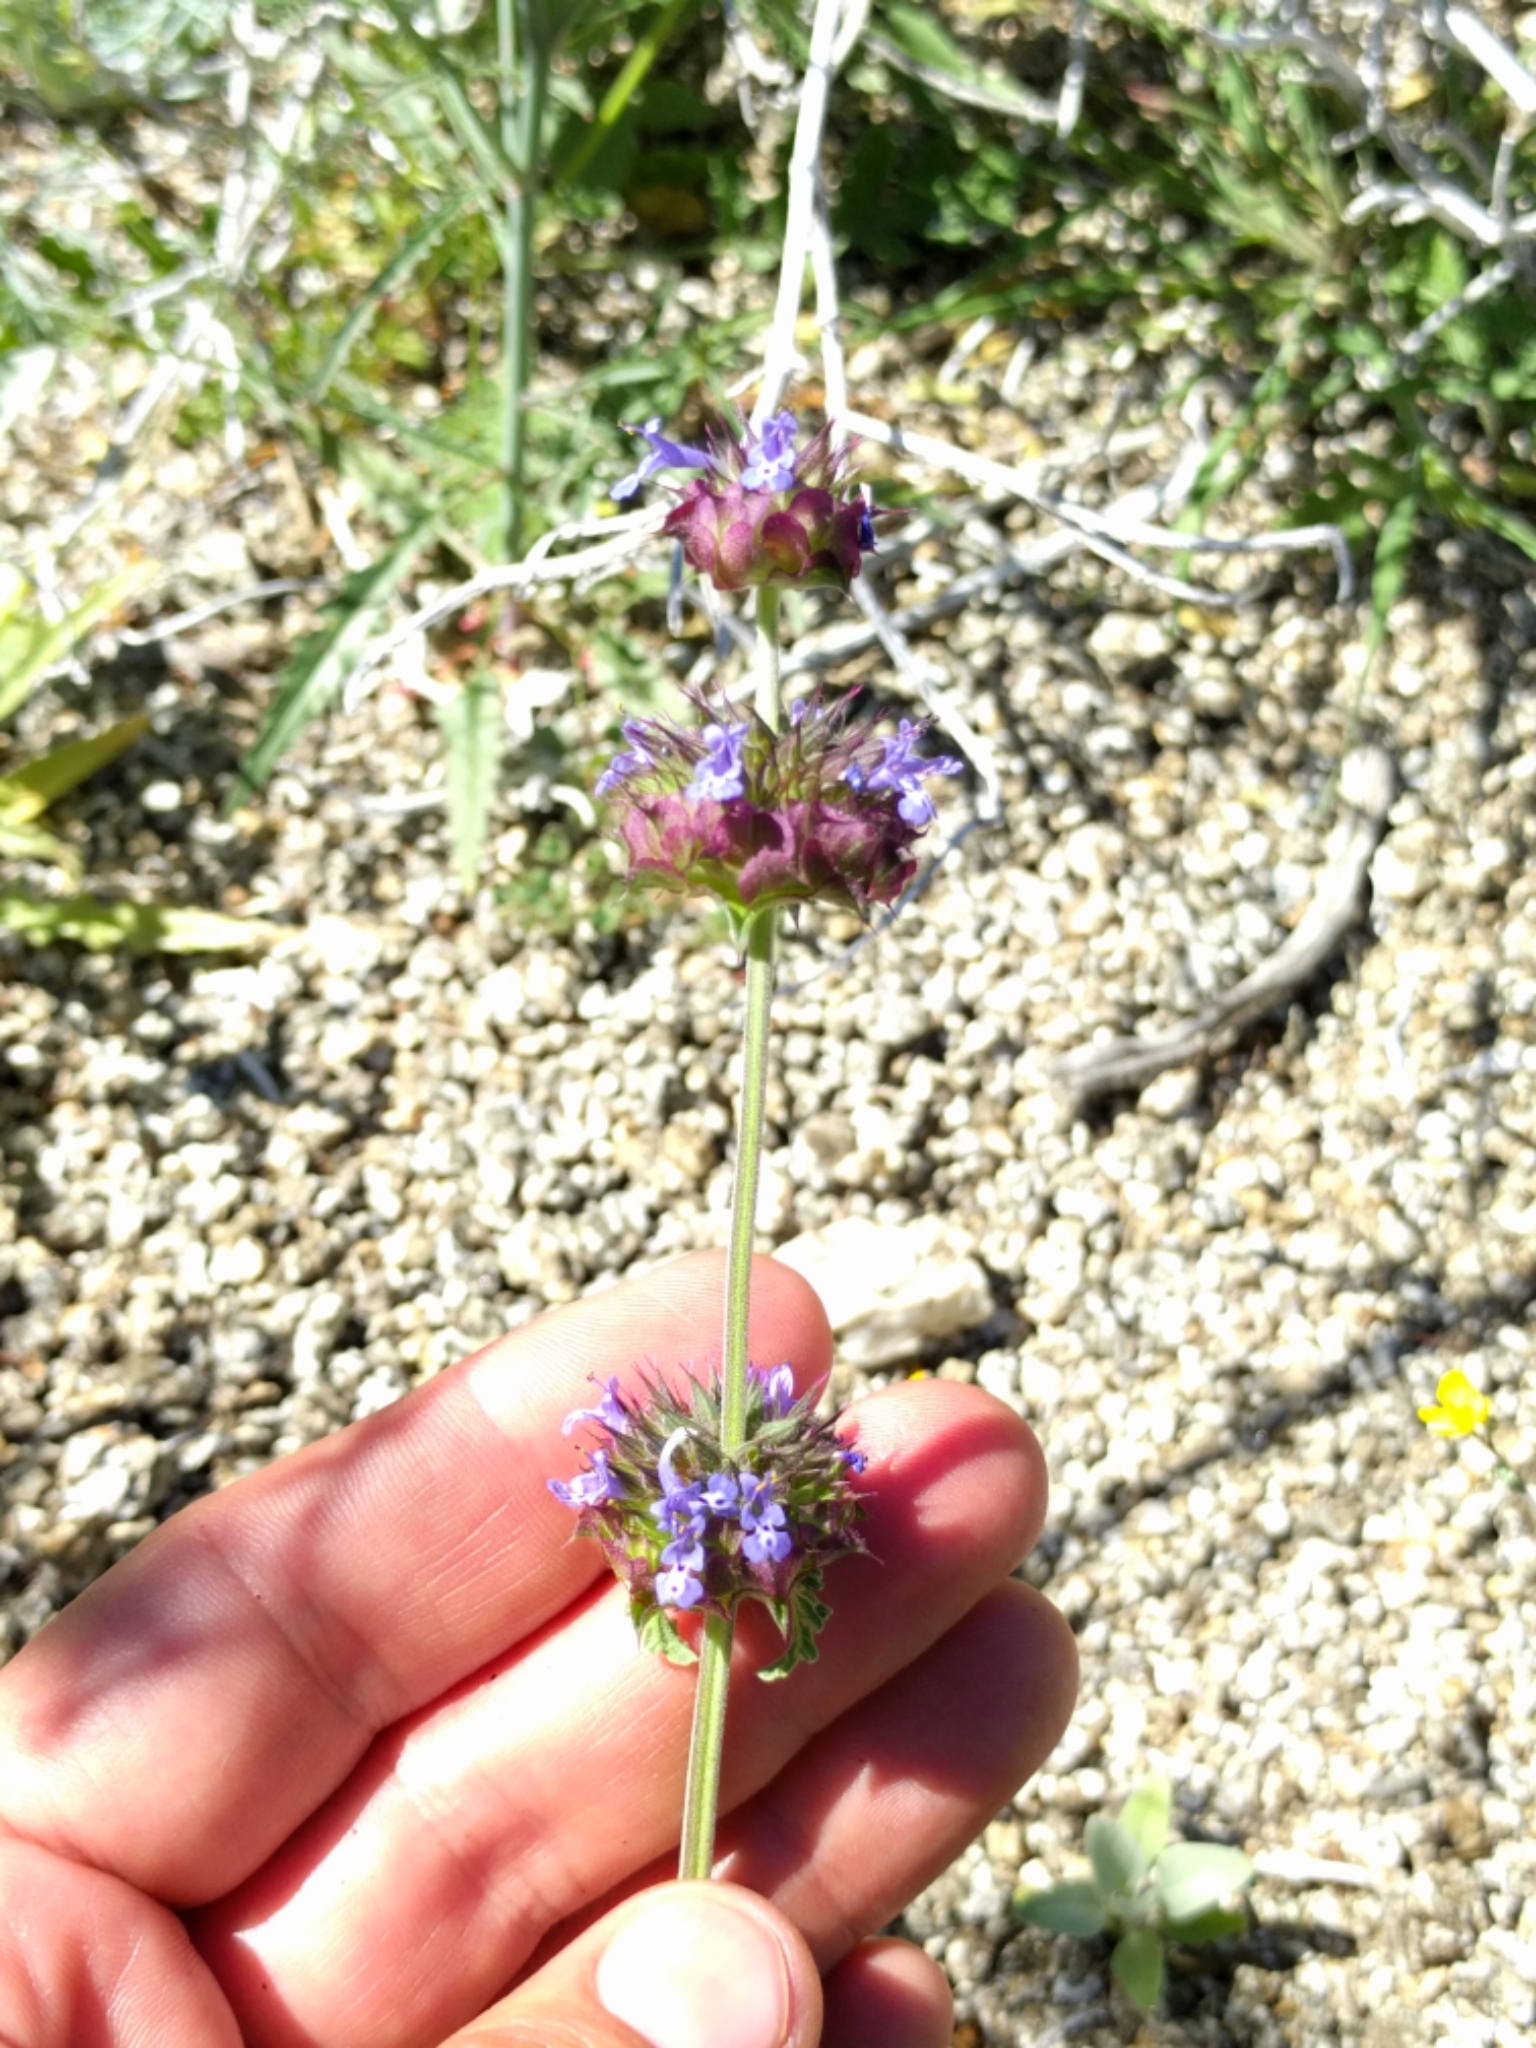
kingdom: Plantae
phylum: Tracheophyta
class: Magnoliopsida
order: Lamiales
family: Lamiaceae
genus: Salvia
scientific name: Salvia columbariae
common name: Chia
